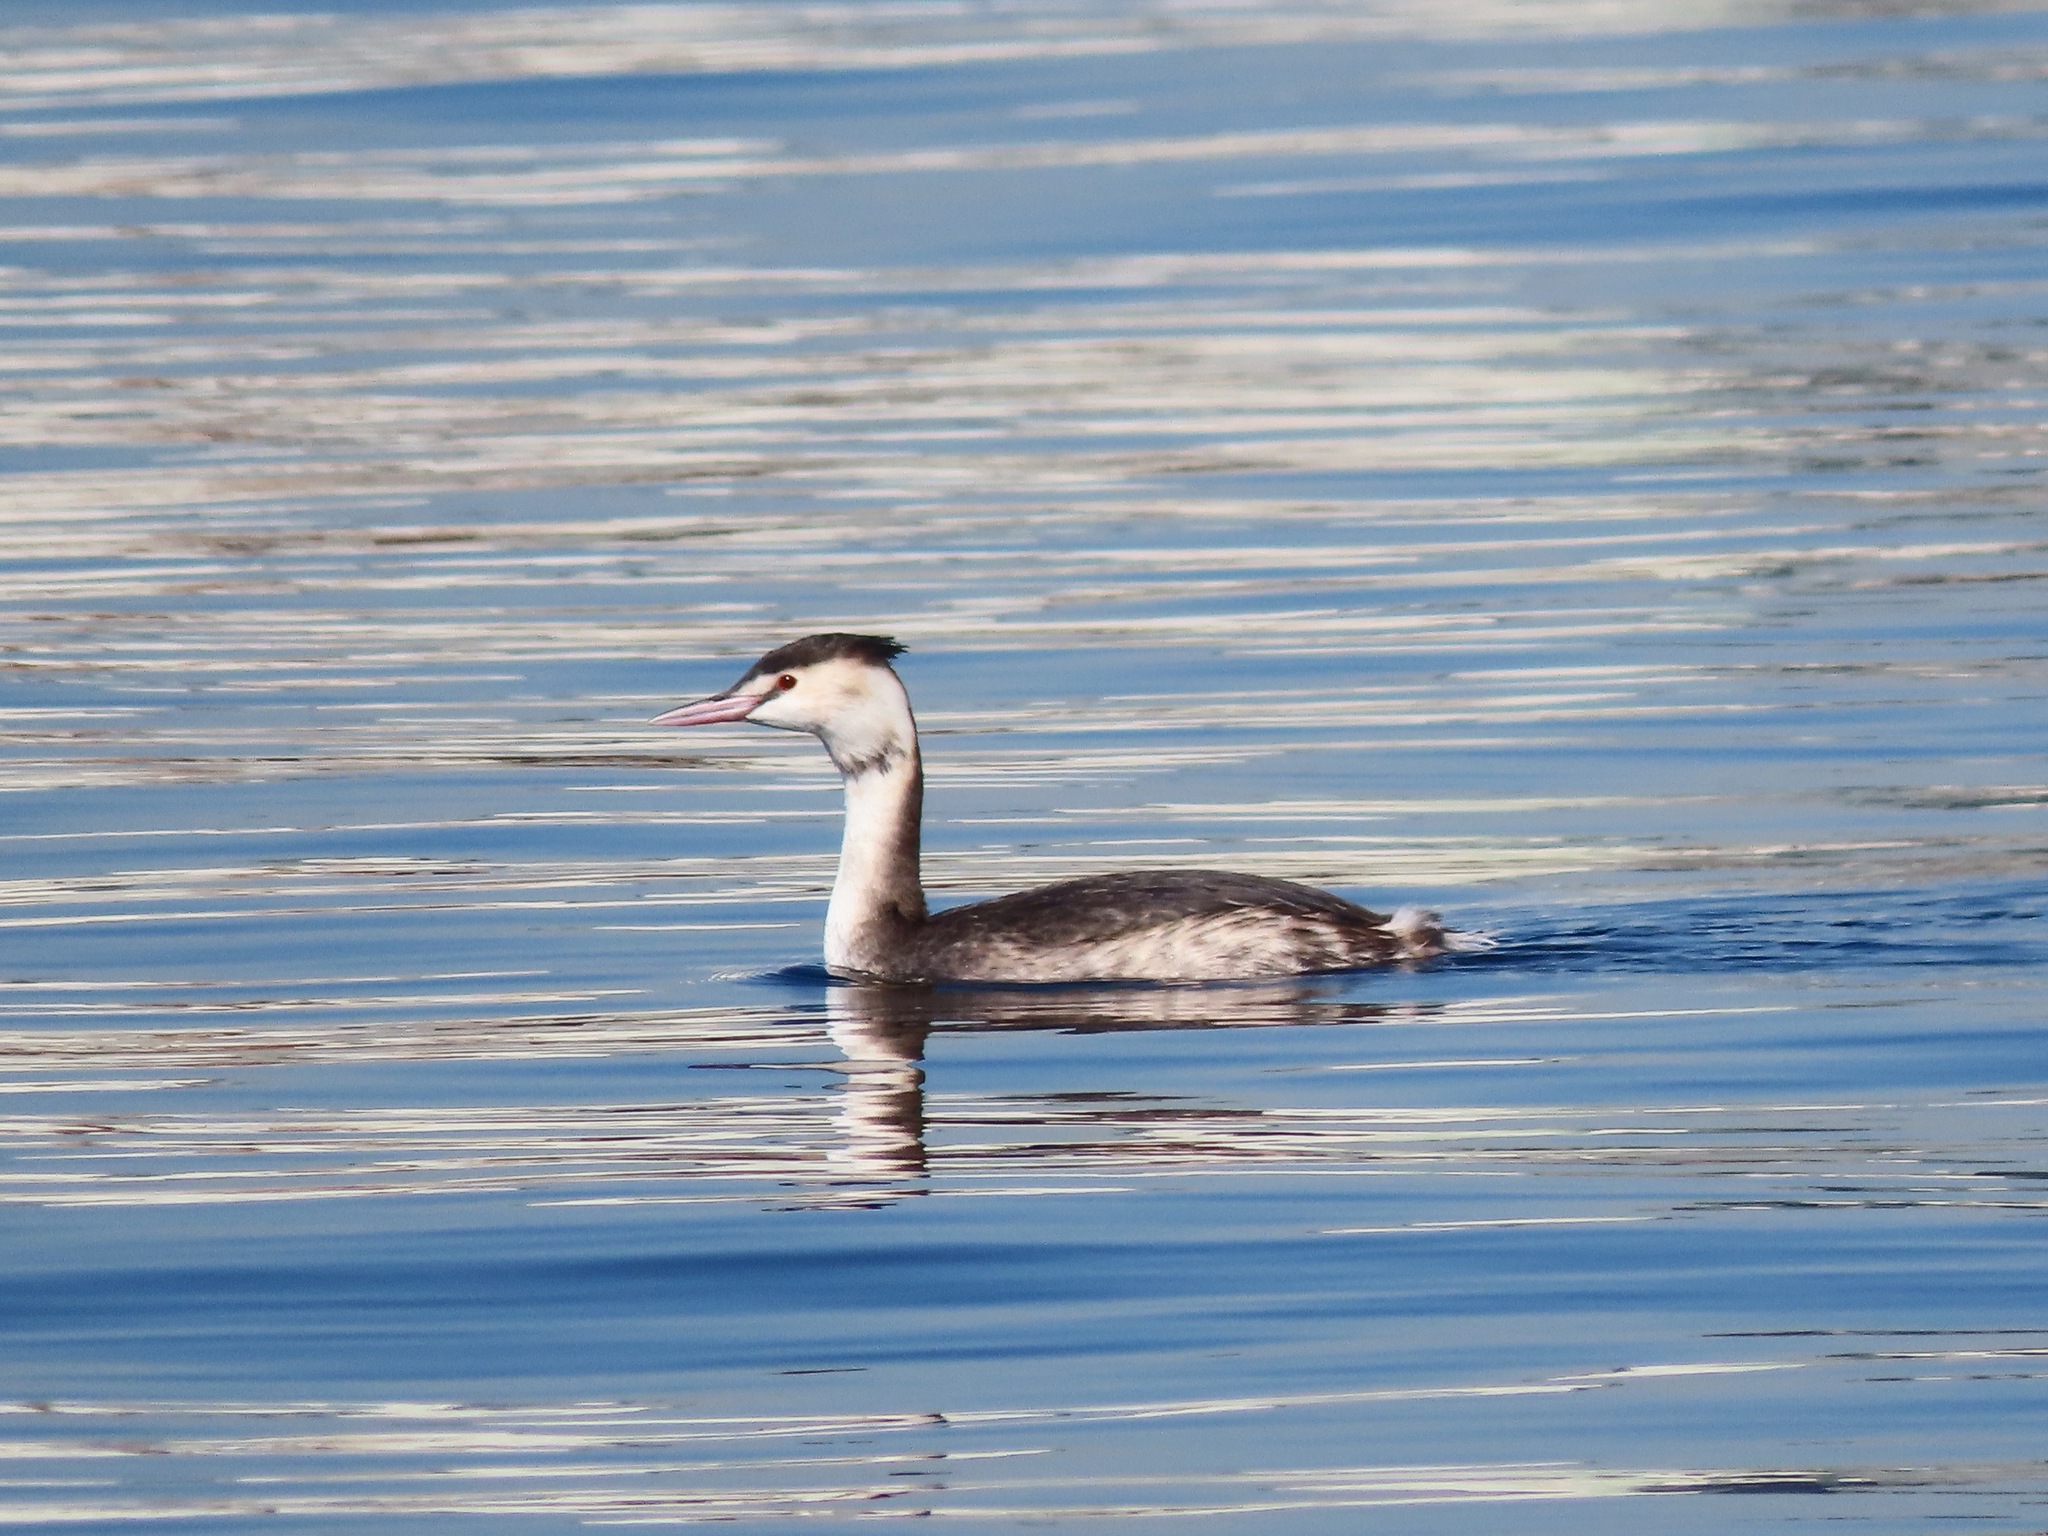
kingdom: Animalia
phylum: Chordata
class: Aves
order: Podicipediformes
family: Podicipedidae
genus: Podiceps
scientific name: Podiceps cristatus
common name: Great crested grebe
